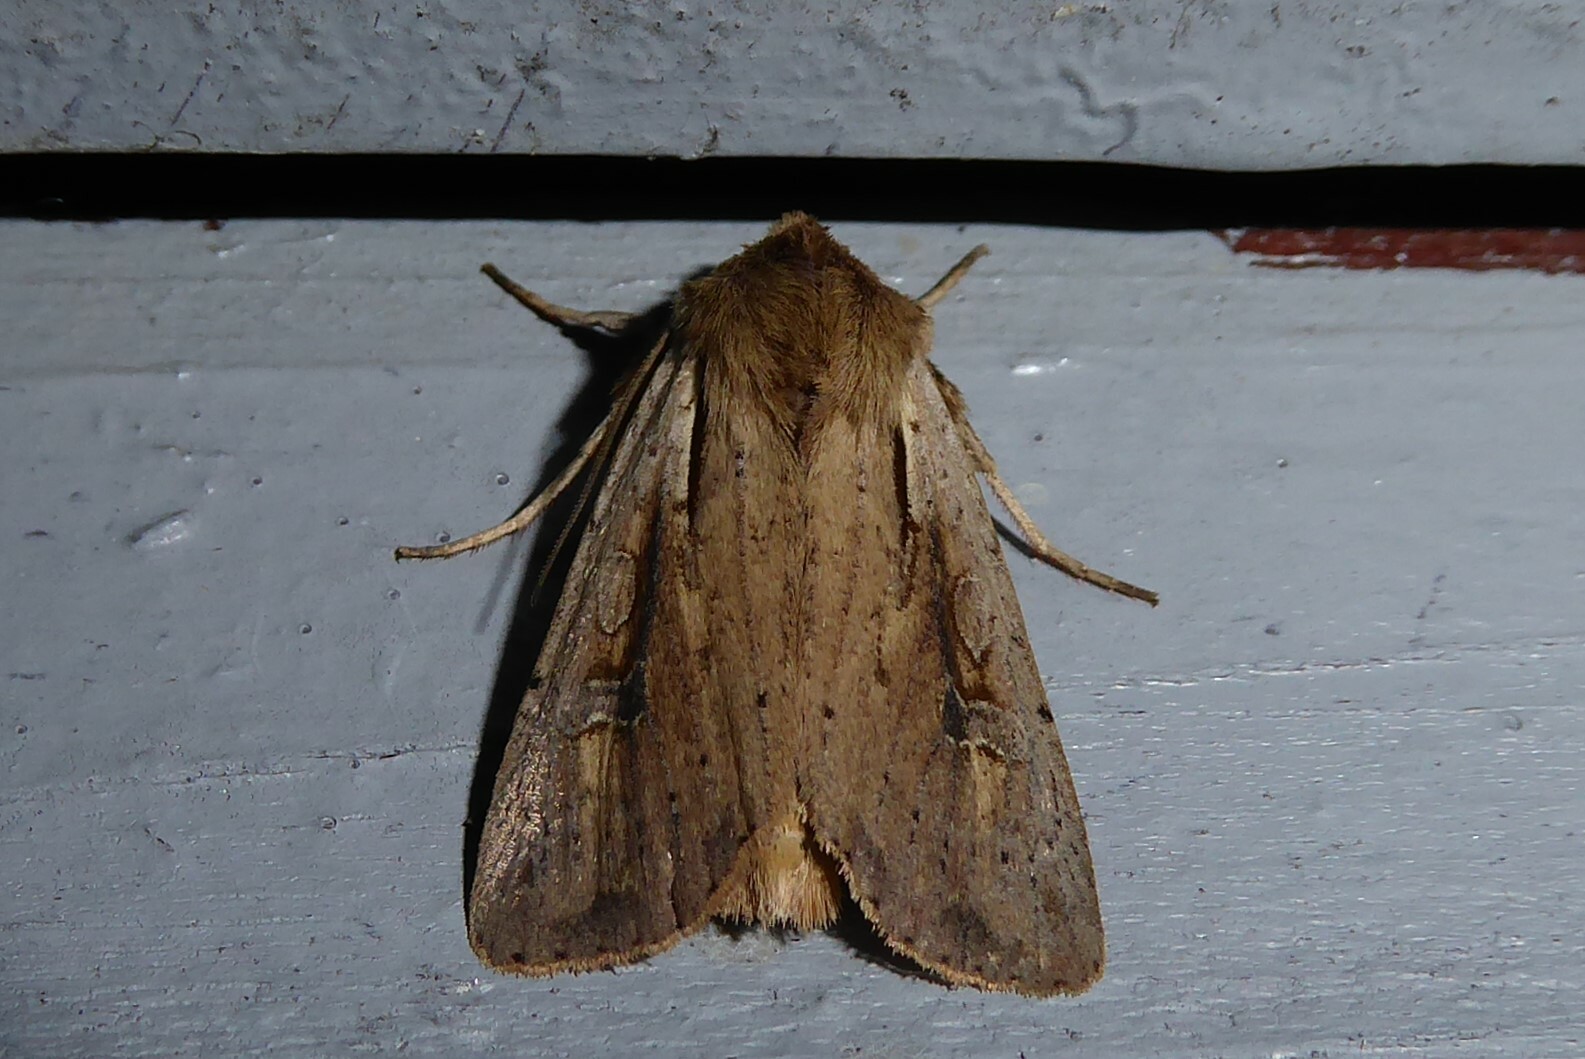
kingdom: Animalia
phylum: Arthropoda
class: Insecta
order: Lepidoptera
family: Noctuidae
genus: Ichneutica
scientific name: Ichneutica atristriga
